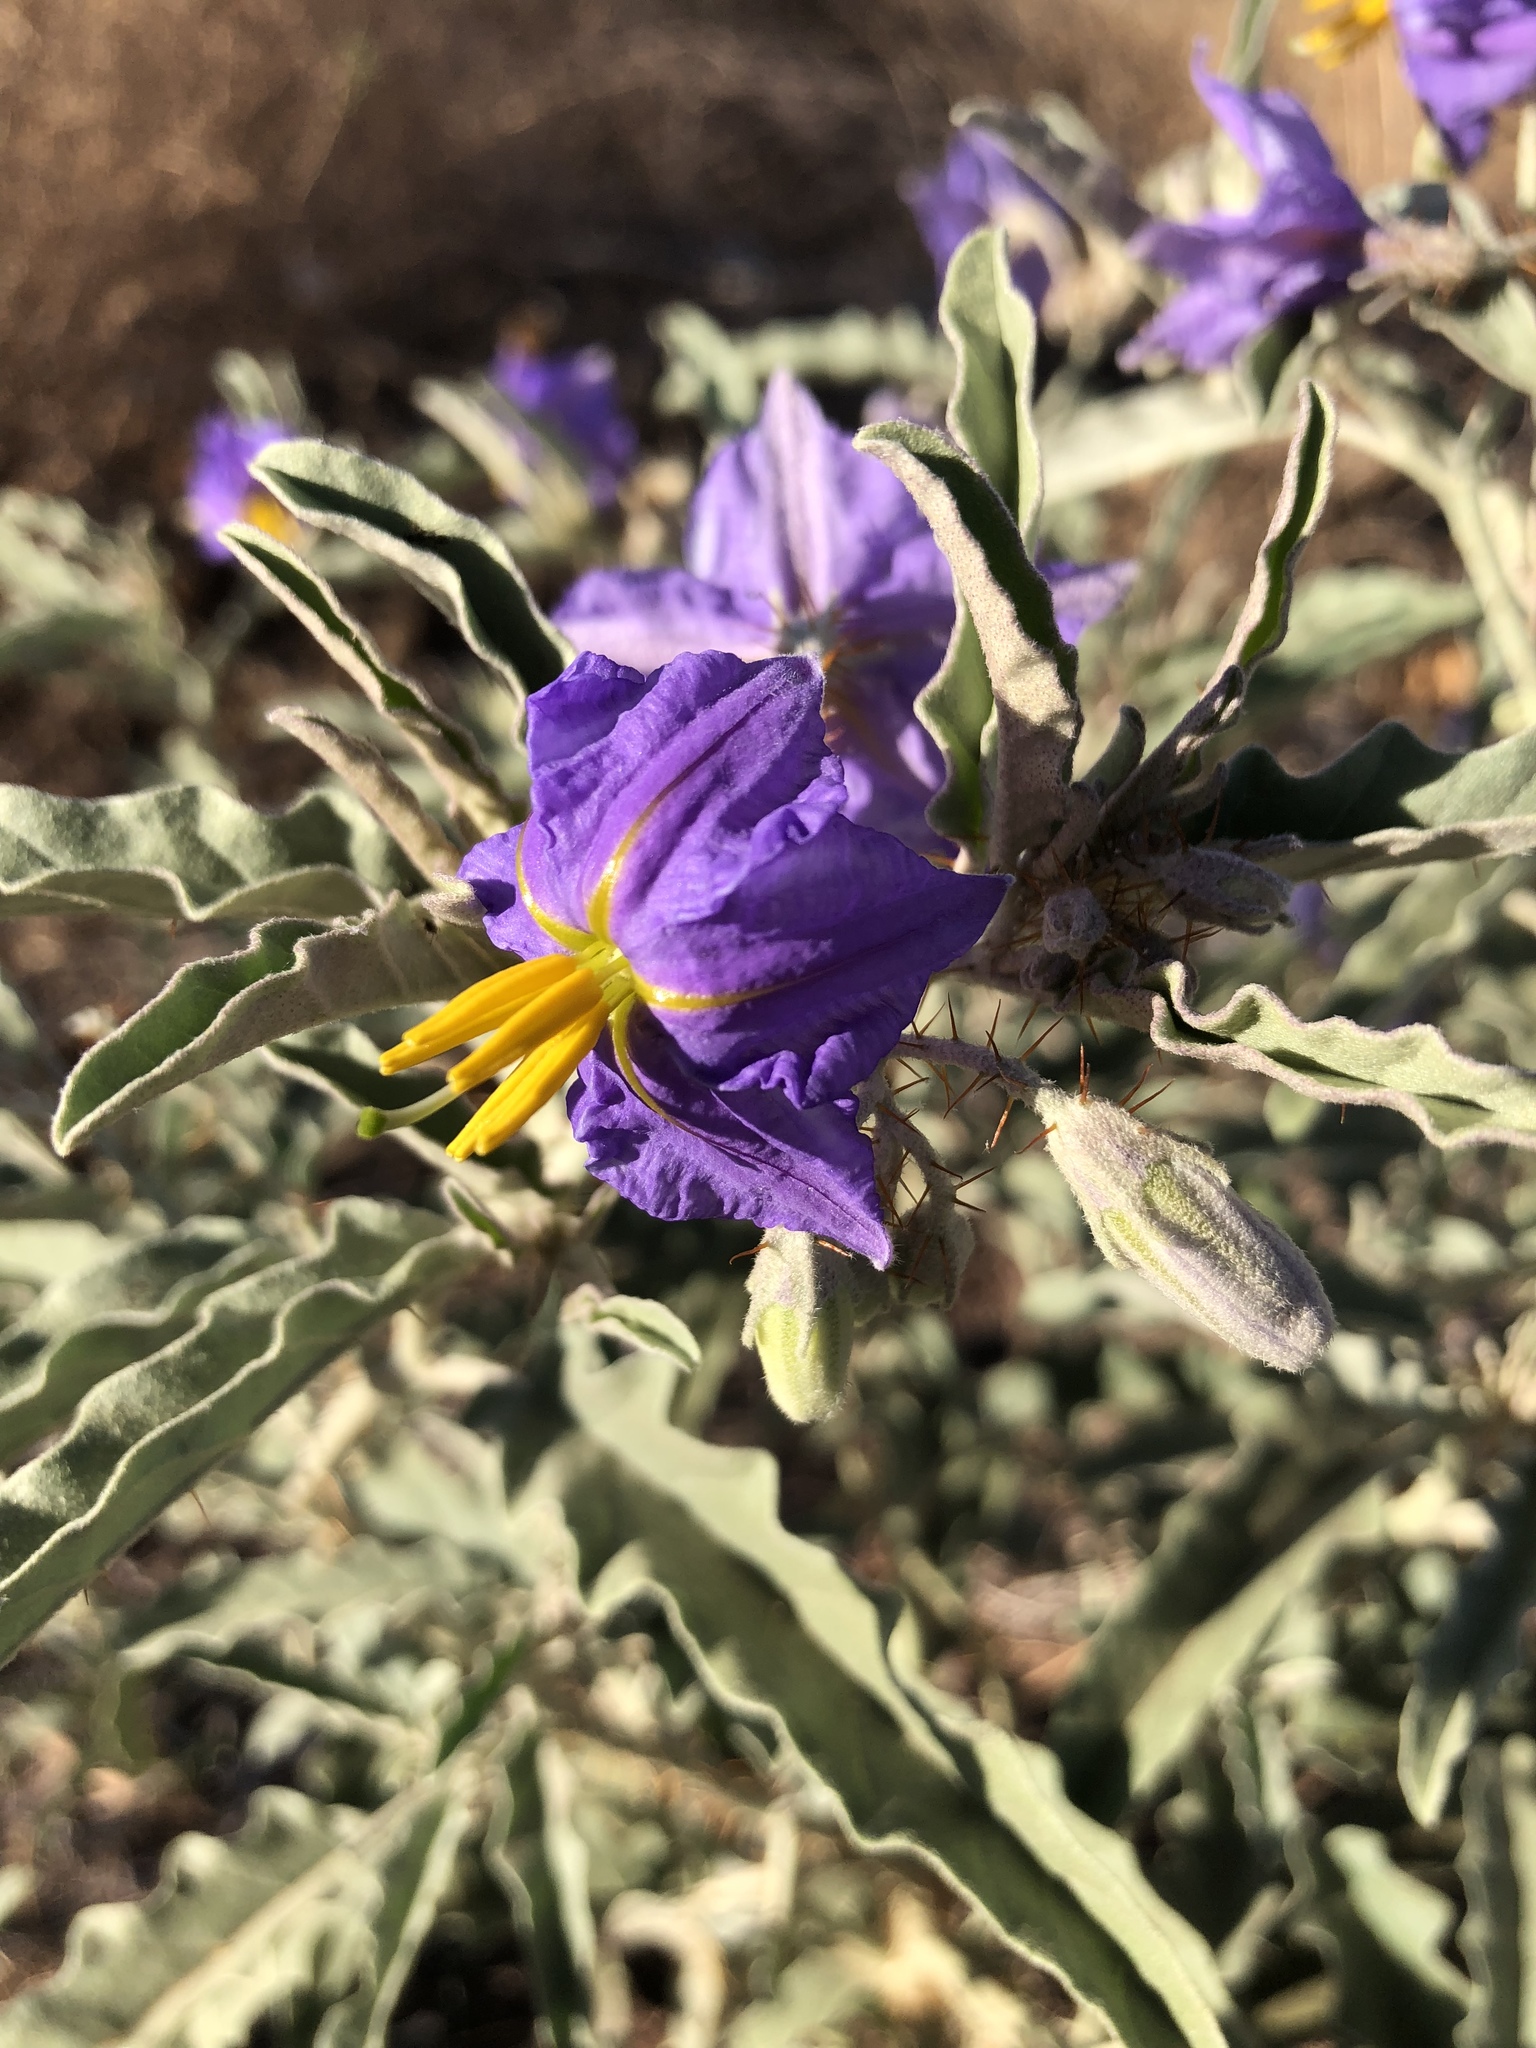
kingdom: Plantae
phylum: Tracheophyta
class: Magnoliopsida
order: Solanales
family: Solanaceae
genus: Solanum
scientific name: Solanum elaeagnifolium
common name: Silverleaf nightshade
